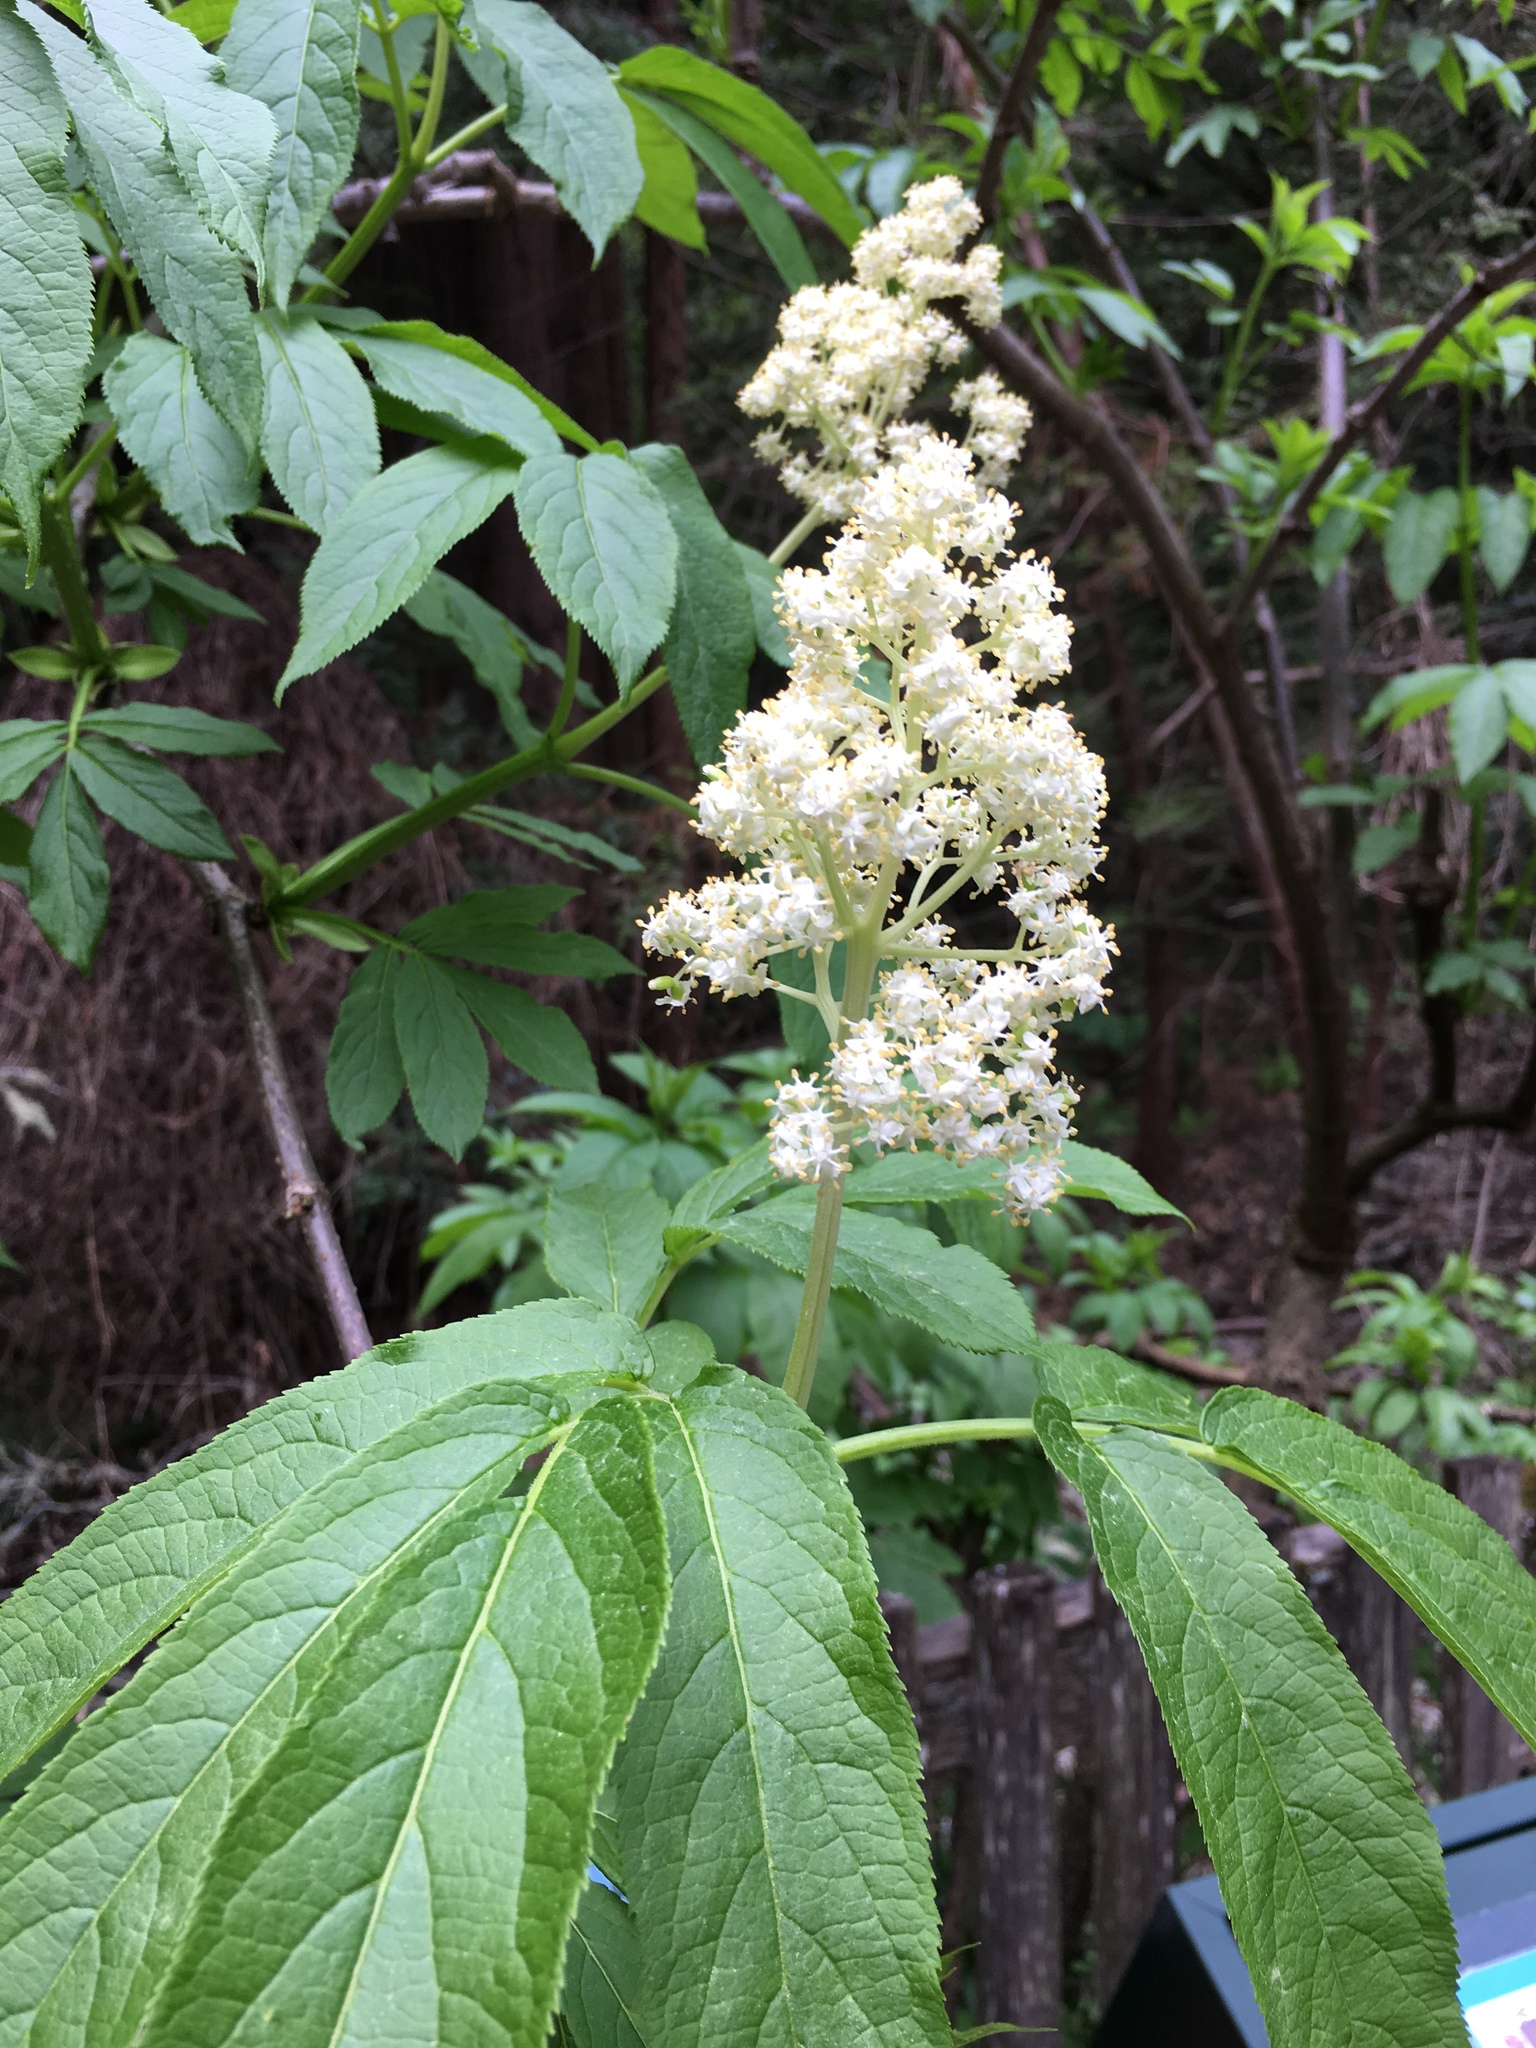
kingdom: Plantae
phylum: Tracheophyta
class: Magnoliopsida
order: Dipsacales
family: Viburnaceae
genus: Sambucus
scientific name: Sambucus racemosa
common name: Red-berried elder
